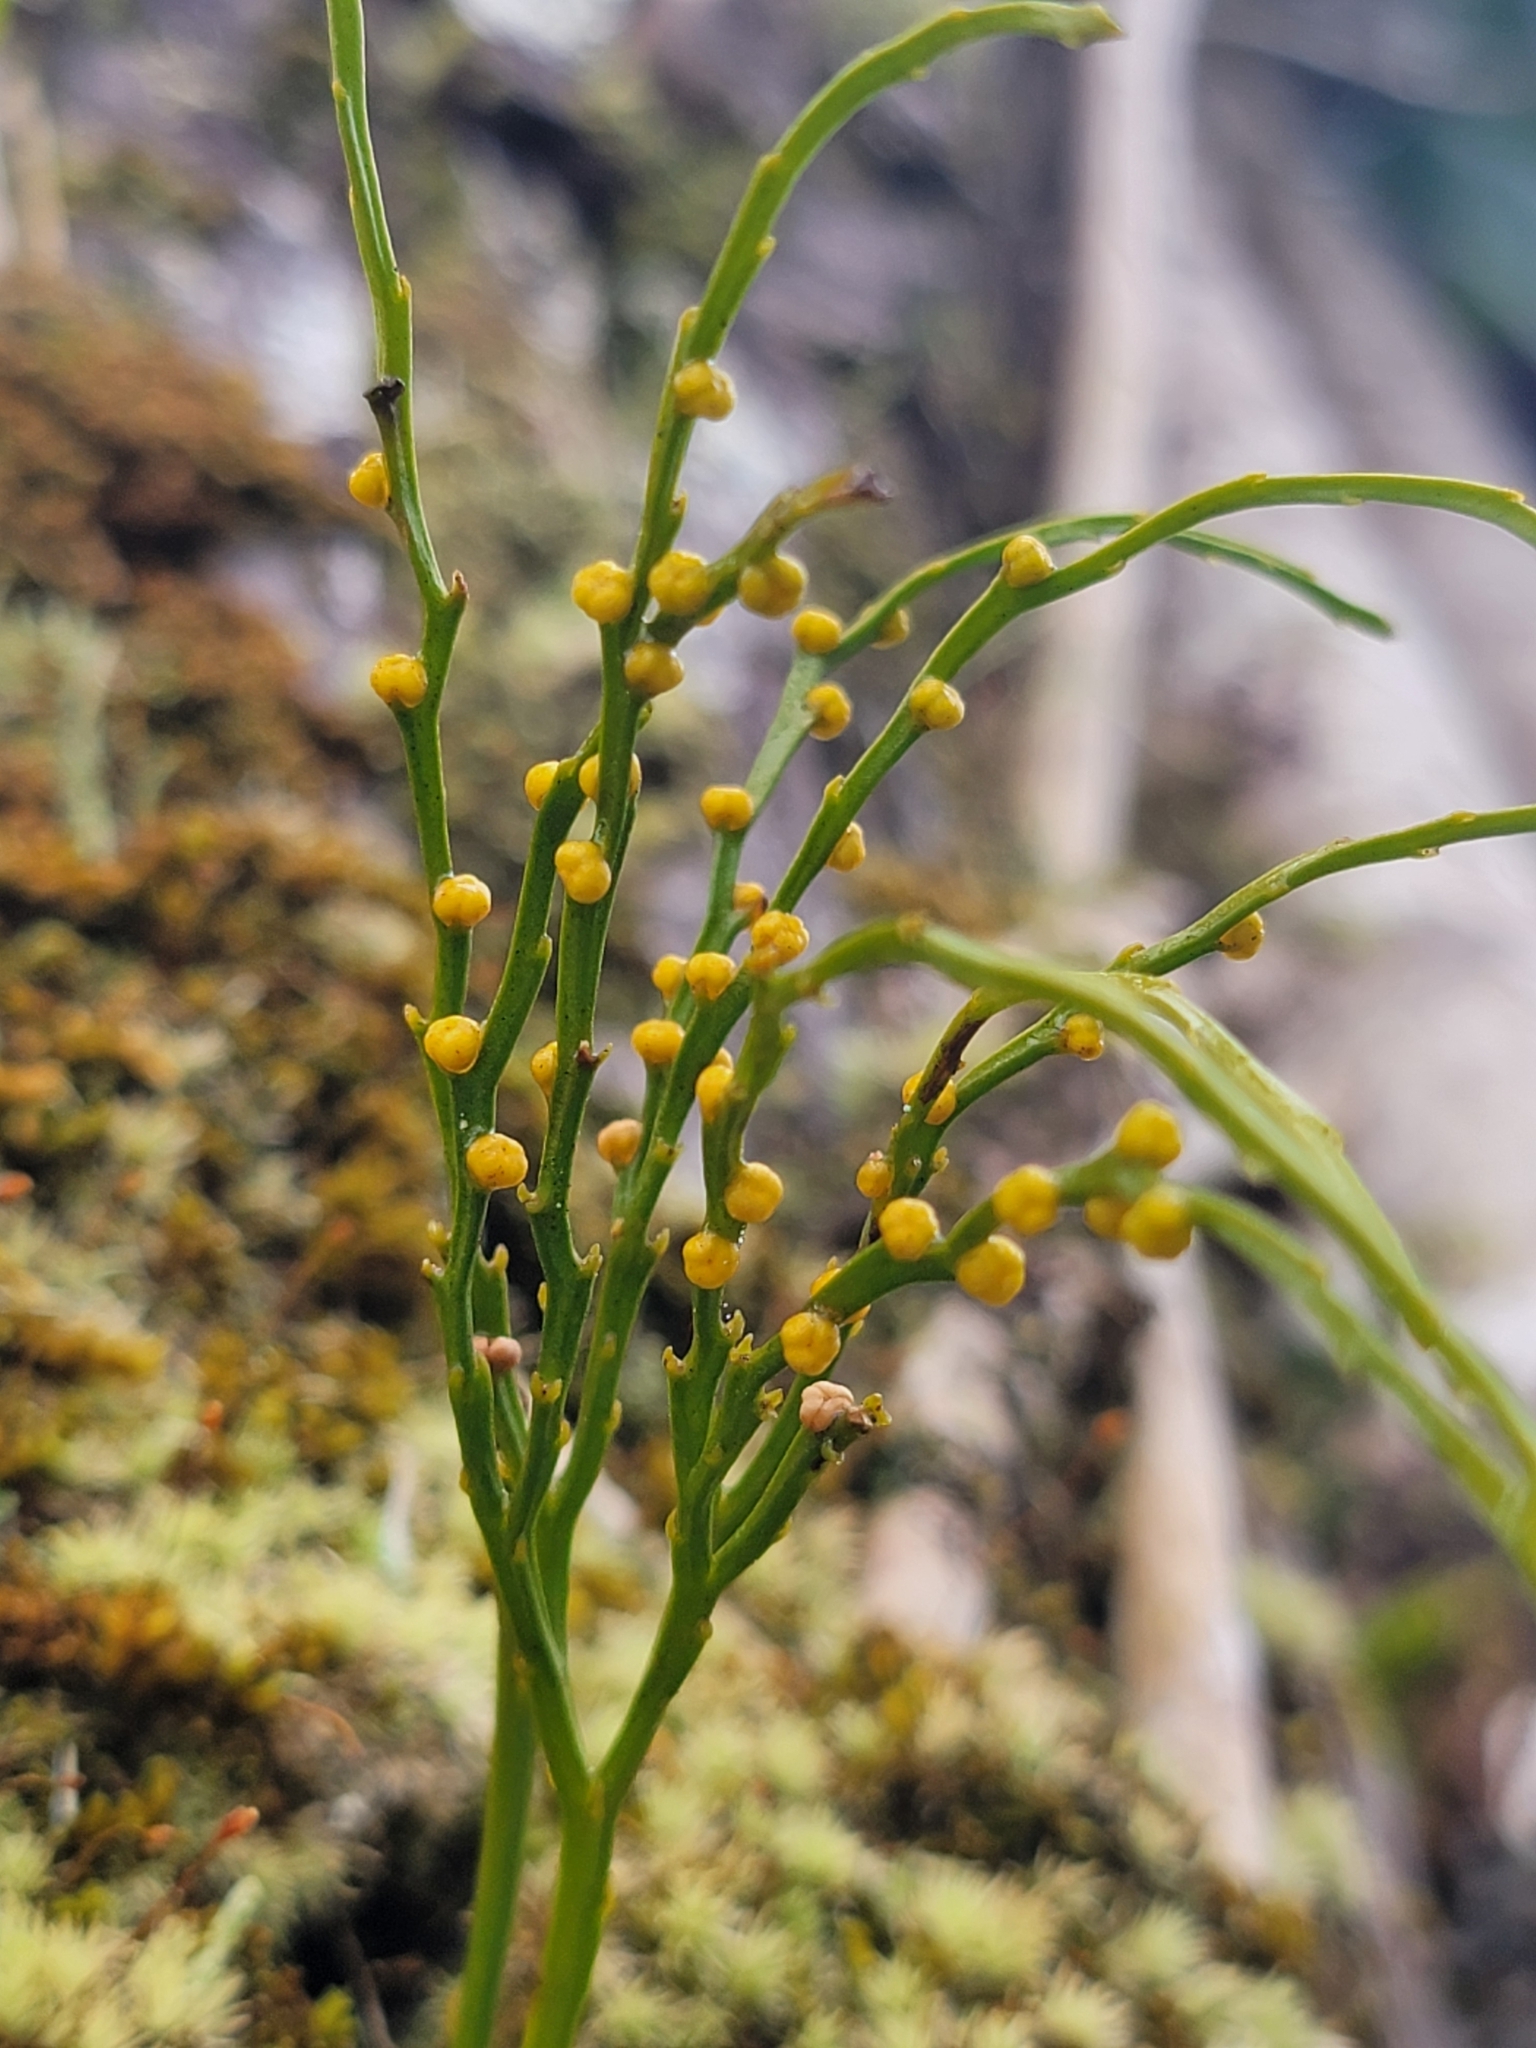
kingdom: Plantae
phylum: Tracheophyta
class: Polypodiopsida
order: Psilotales
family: Psilotaceae
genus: Psilotum
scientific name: Psilotum nudum
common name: Skeleton fork fern
